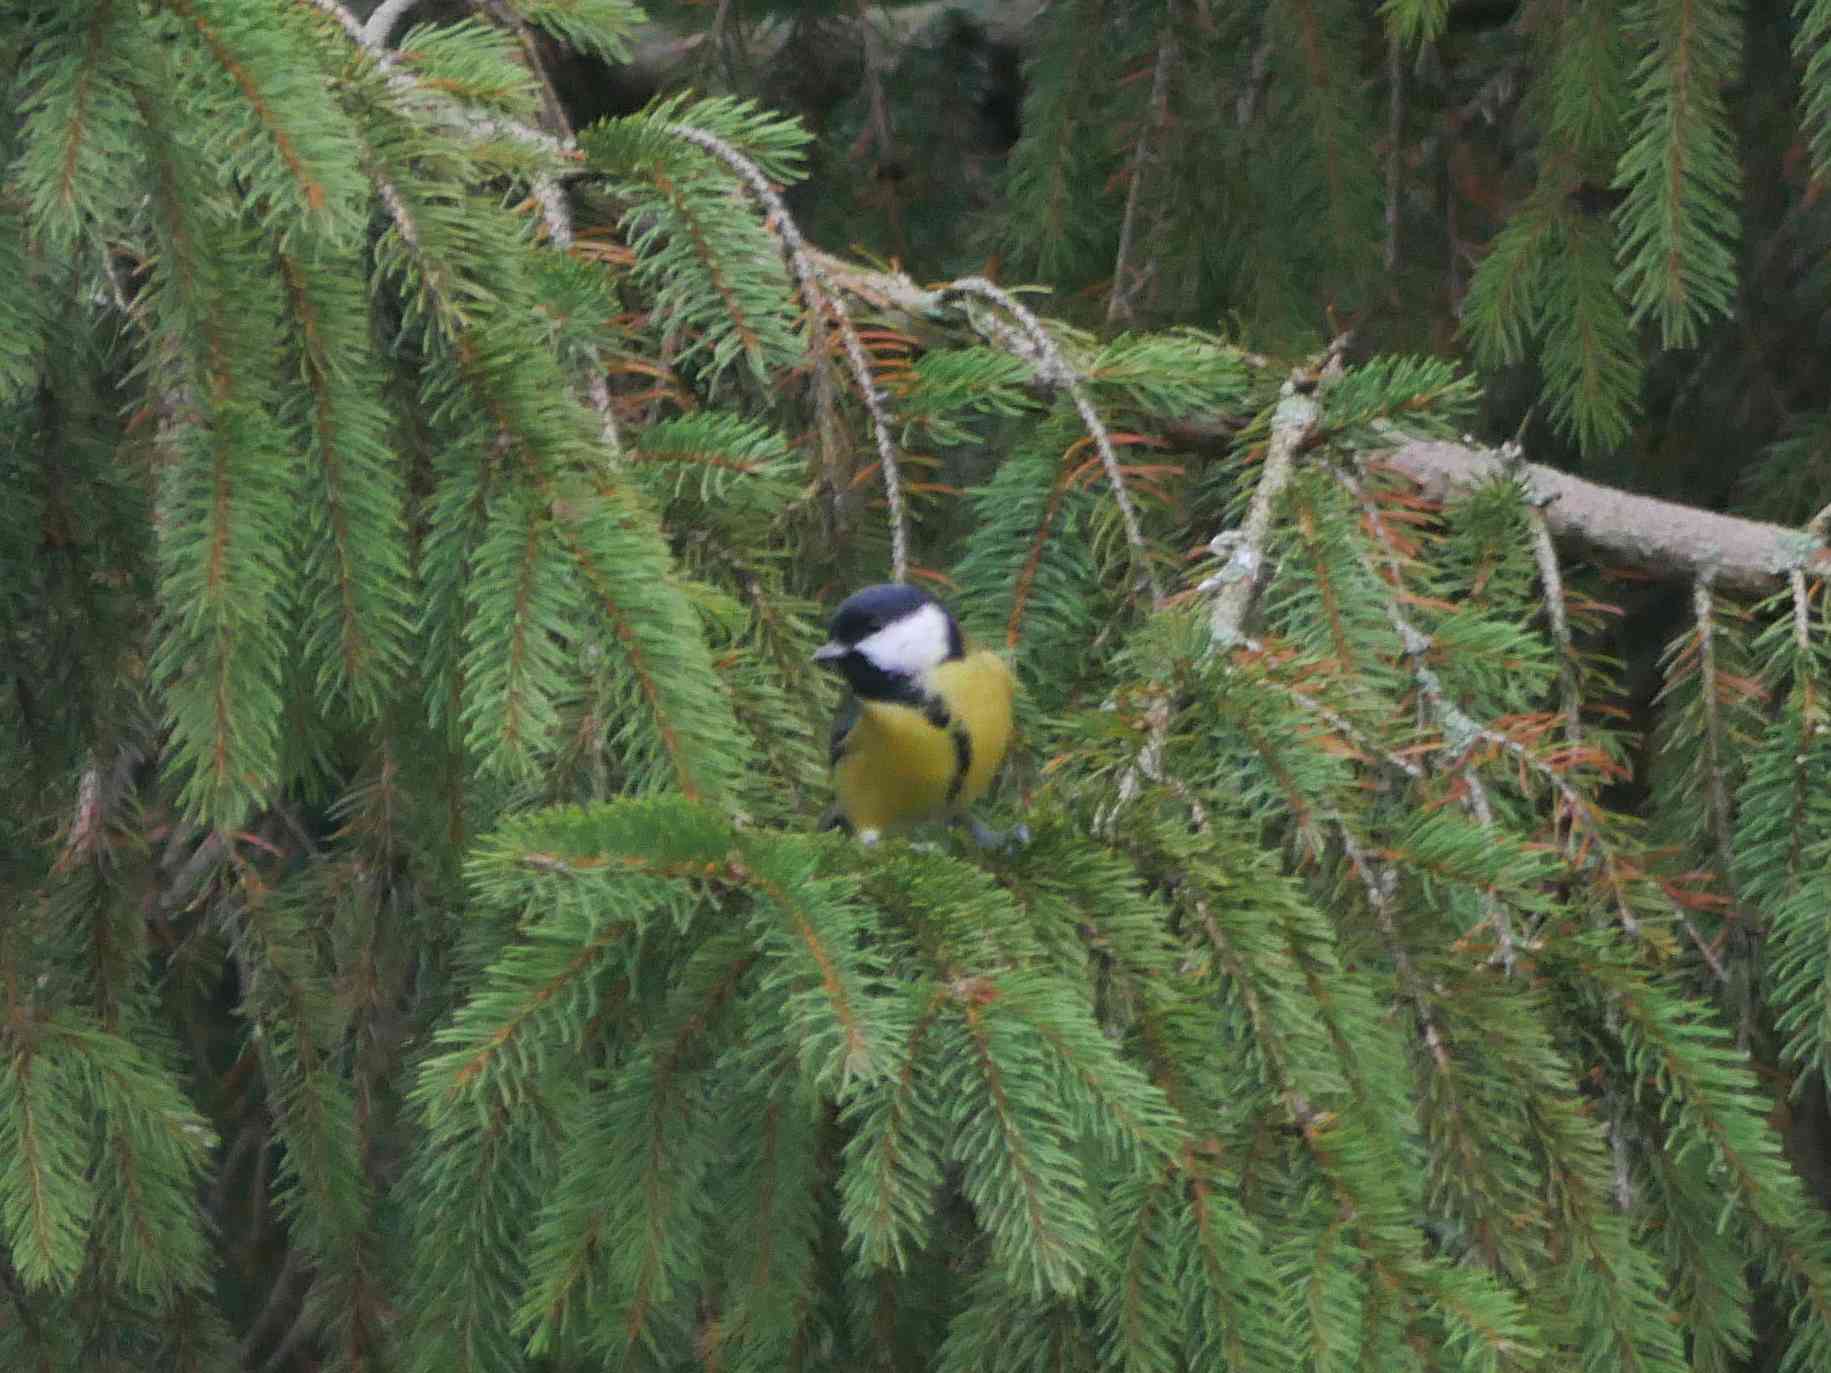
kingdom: Animalia
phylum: Chordata
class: Aves
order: Passeriformes
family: Paridae
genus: Parus
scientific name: Parus major
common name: Great tit
